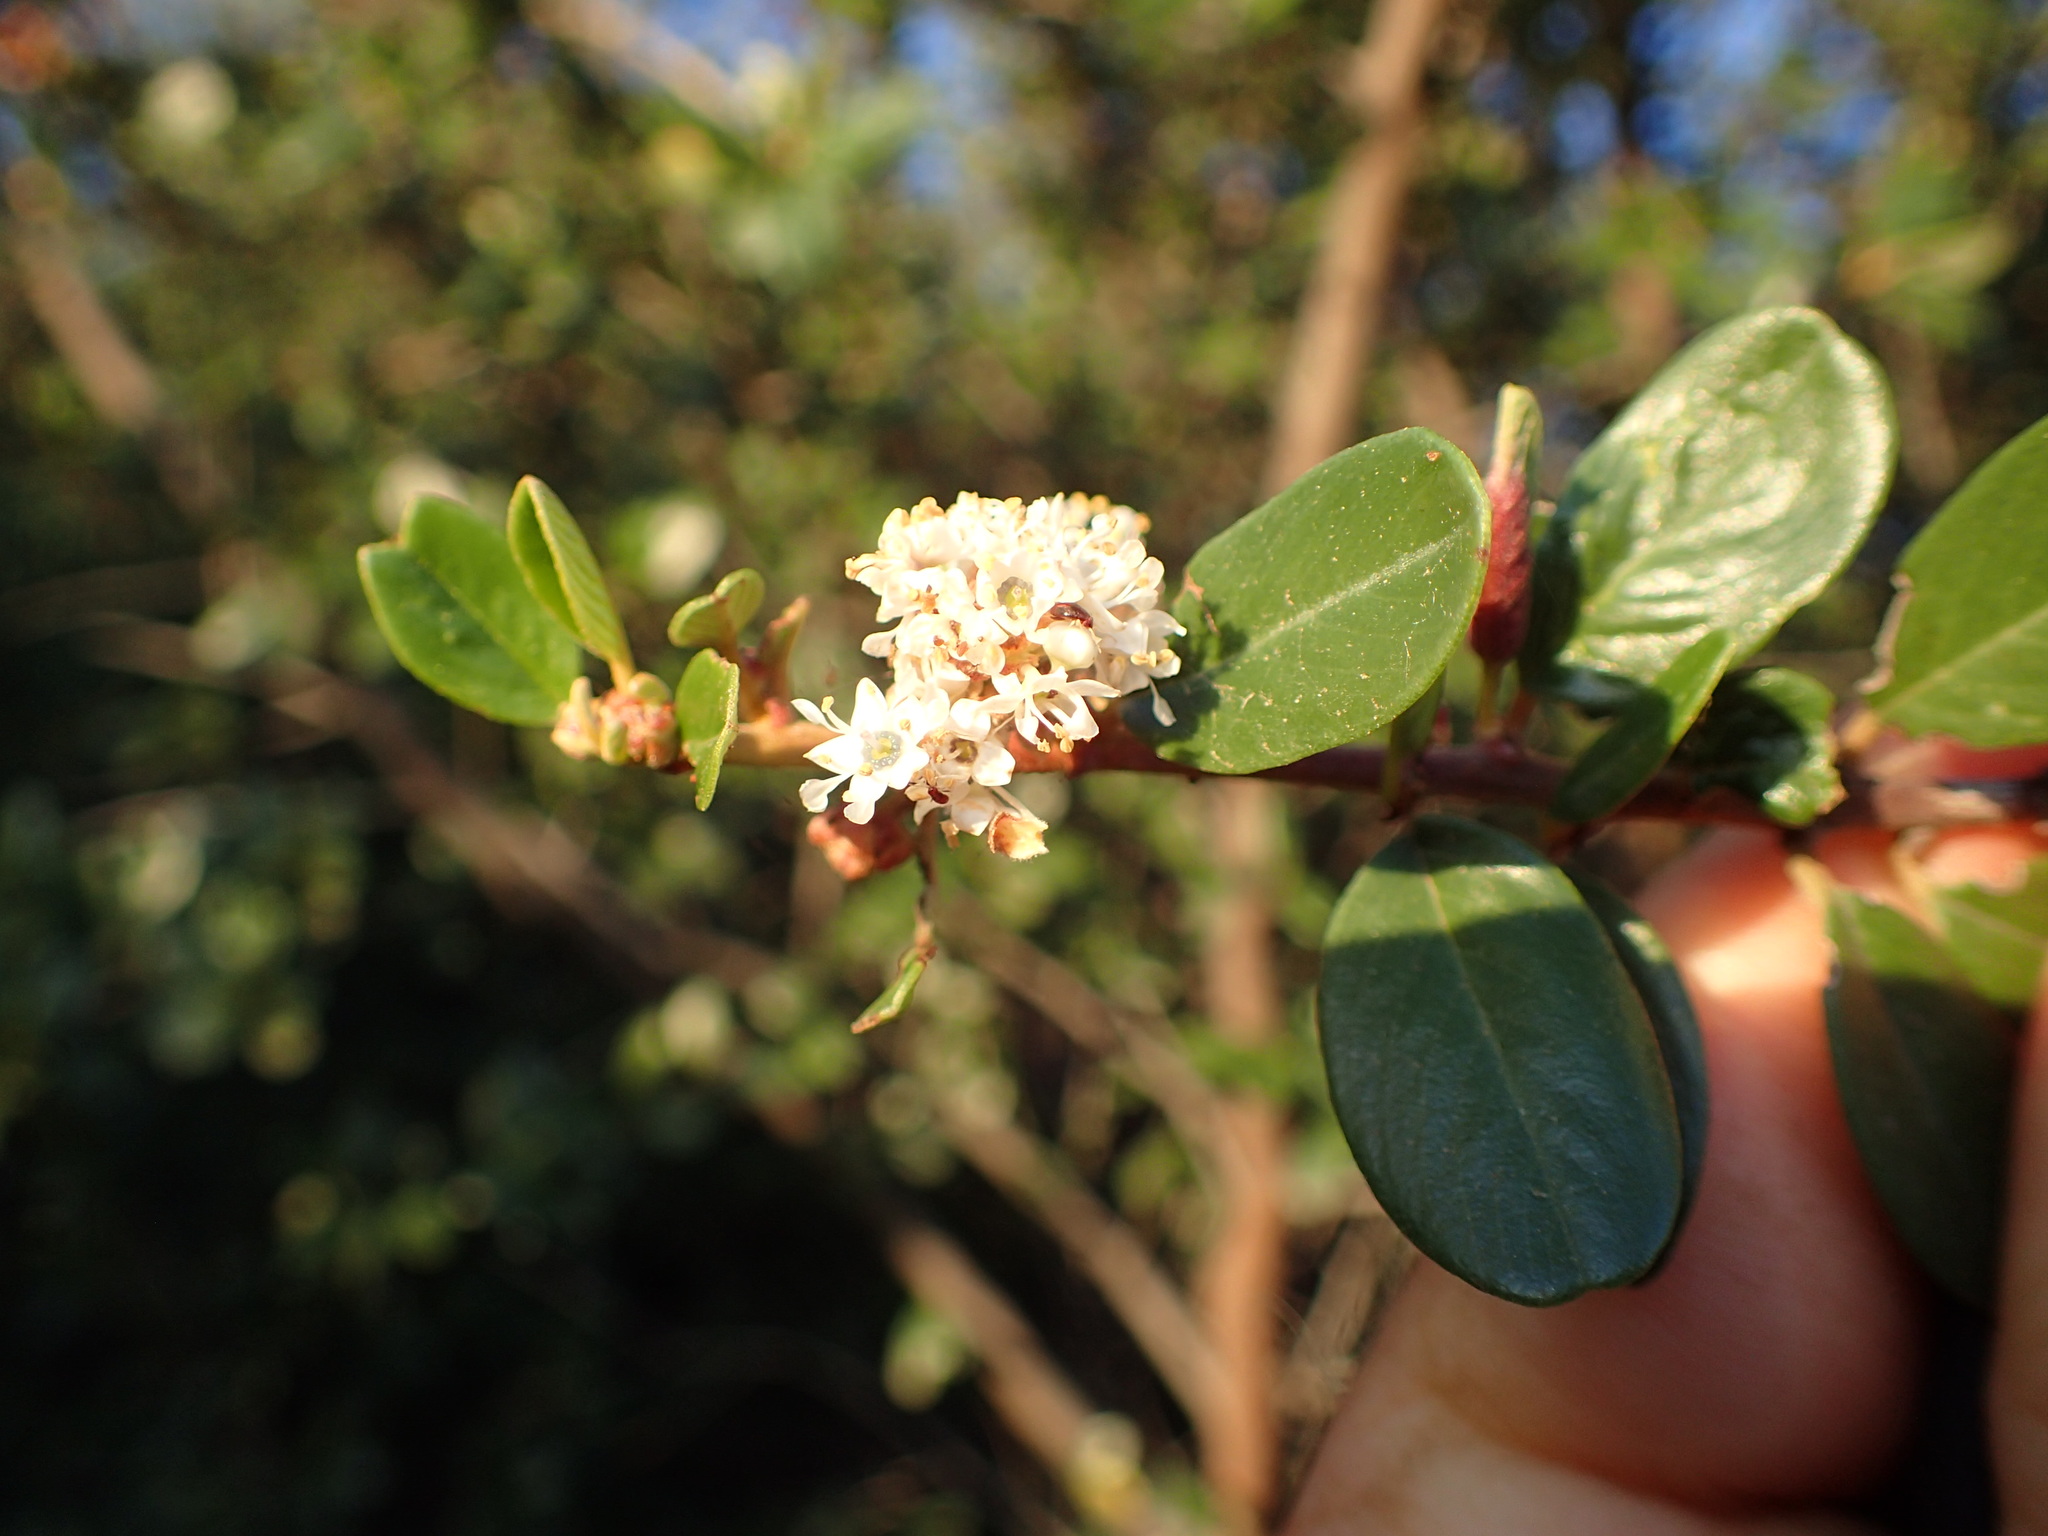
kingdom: Plantae
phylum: Tracheophyta
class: Magnoliopsida
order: Rosales
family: Rhamnaceae
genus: Ceanothus
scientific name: Ceanothus megacarpus
